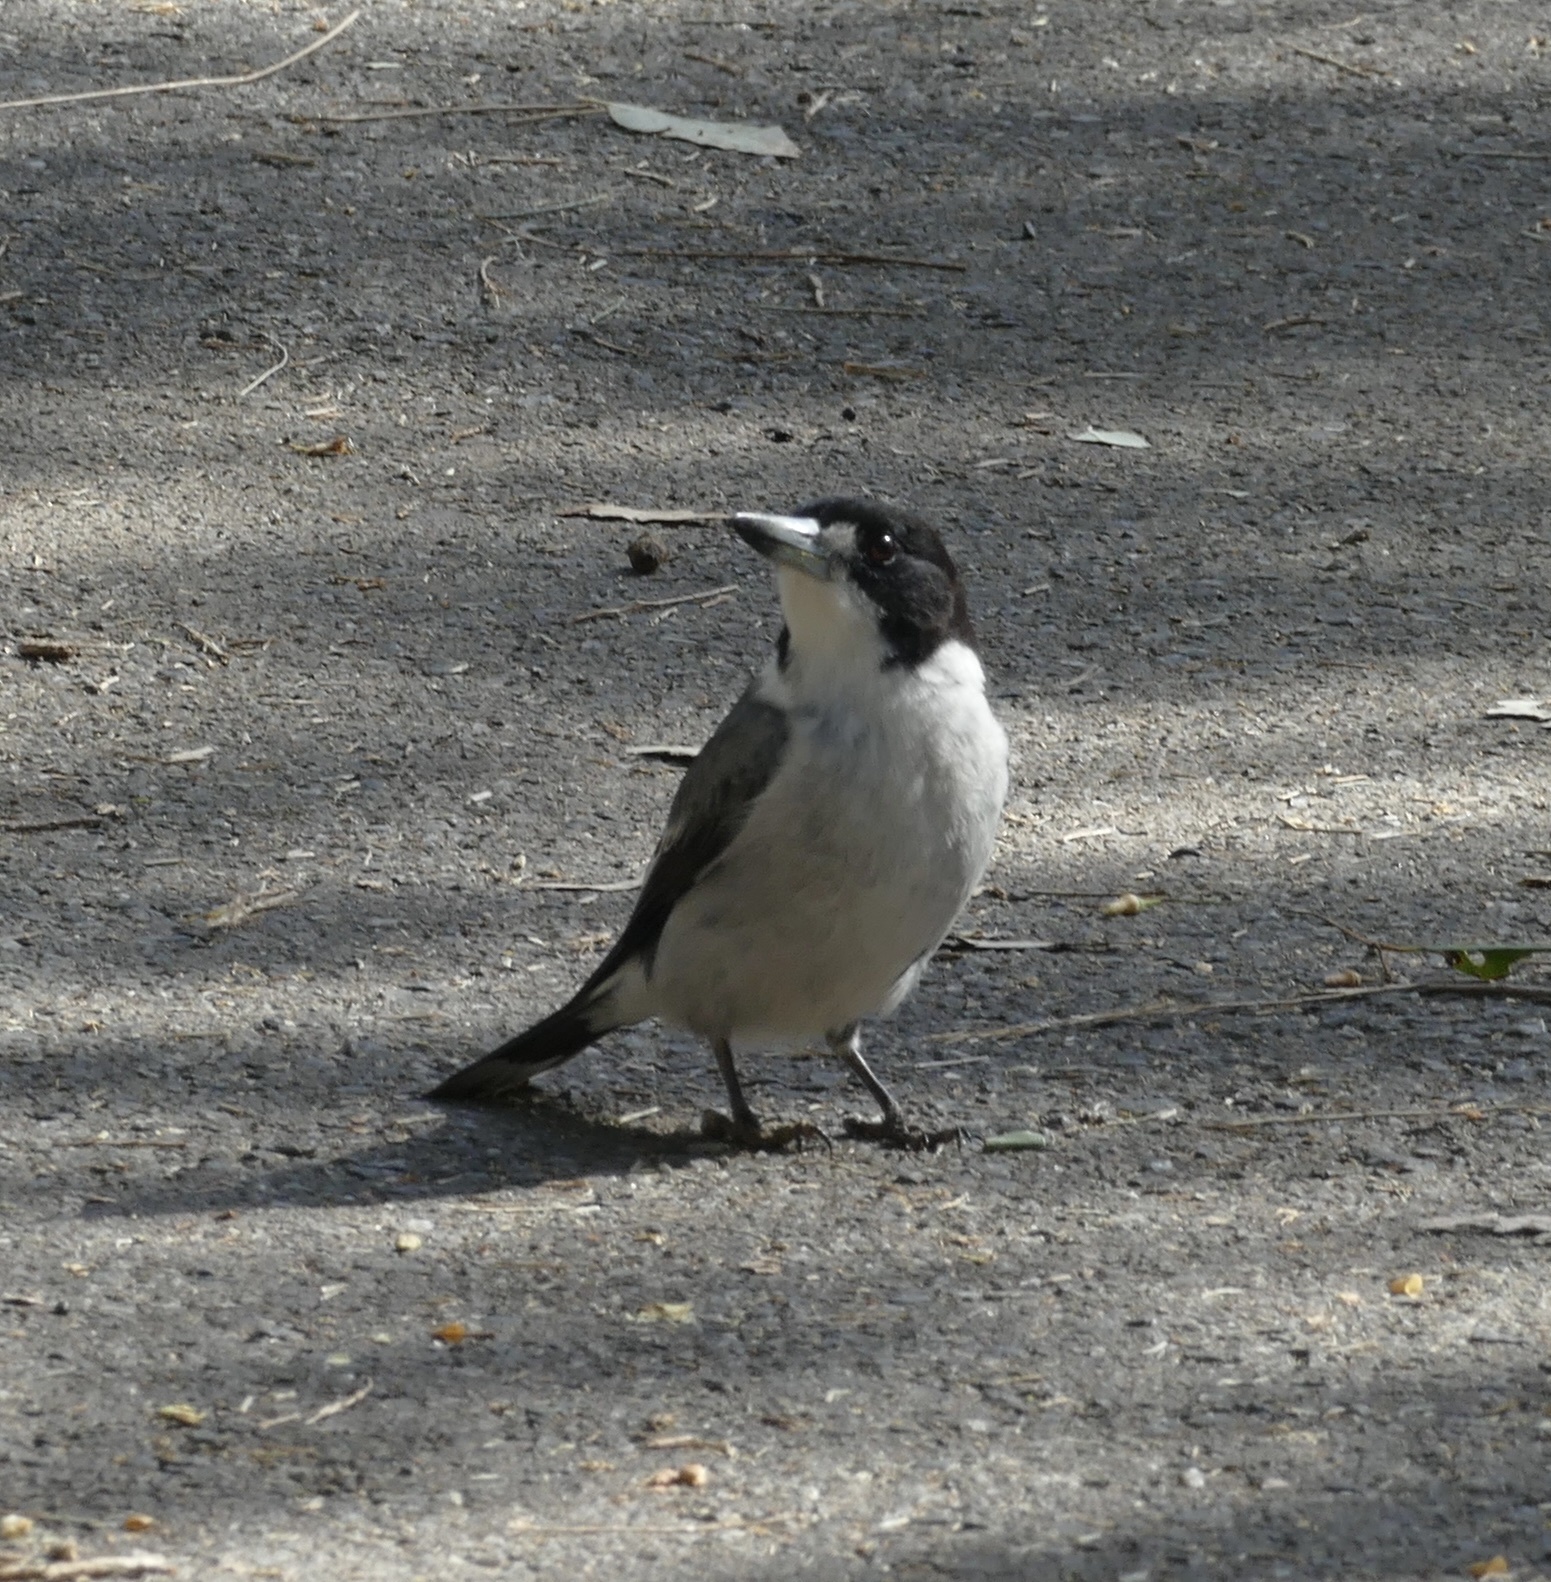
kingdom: Animalia
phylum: Chordata
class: Aves
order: Passeriformes
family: Cracticidae
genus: Cracticus
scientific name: Cracticus torquatus
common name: Grey butcherbird
